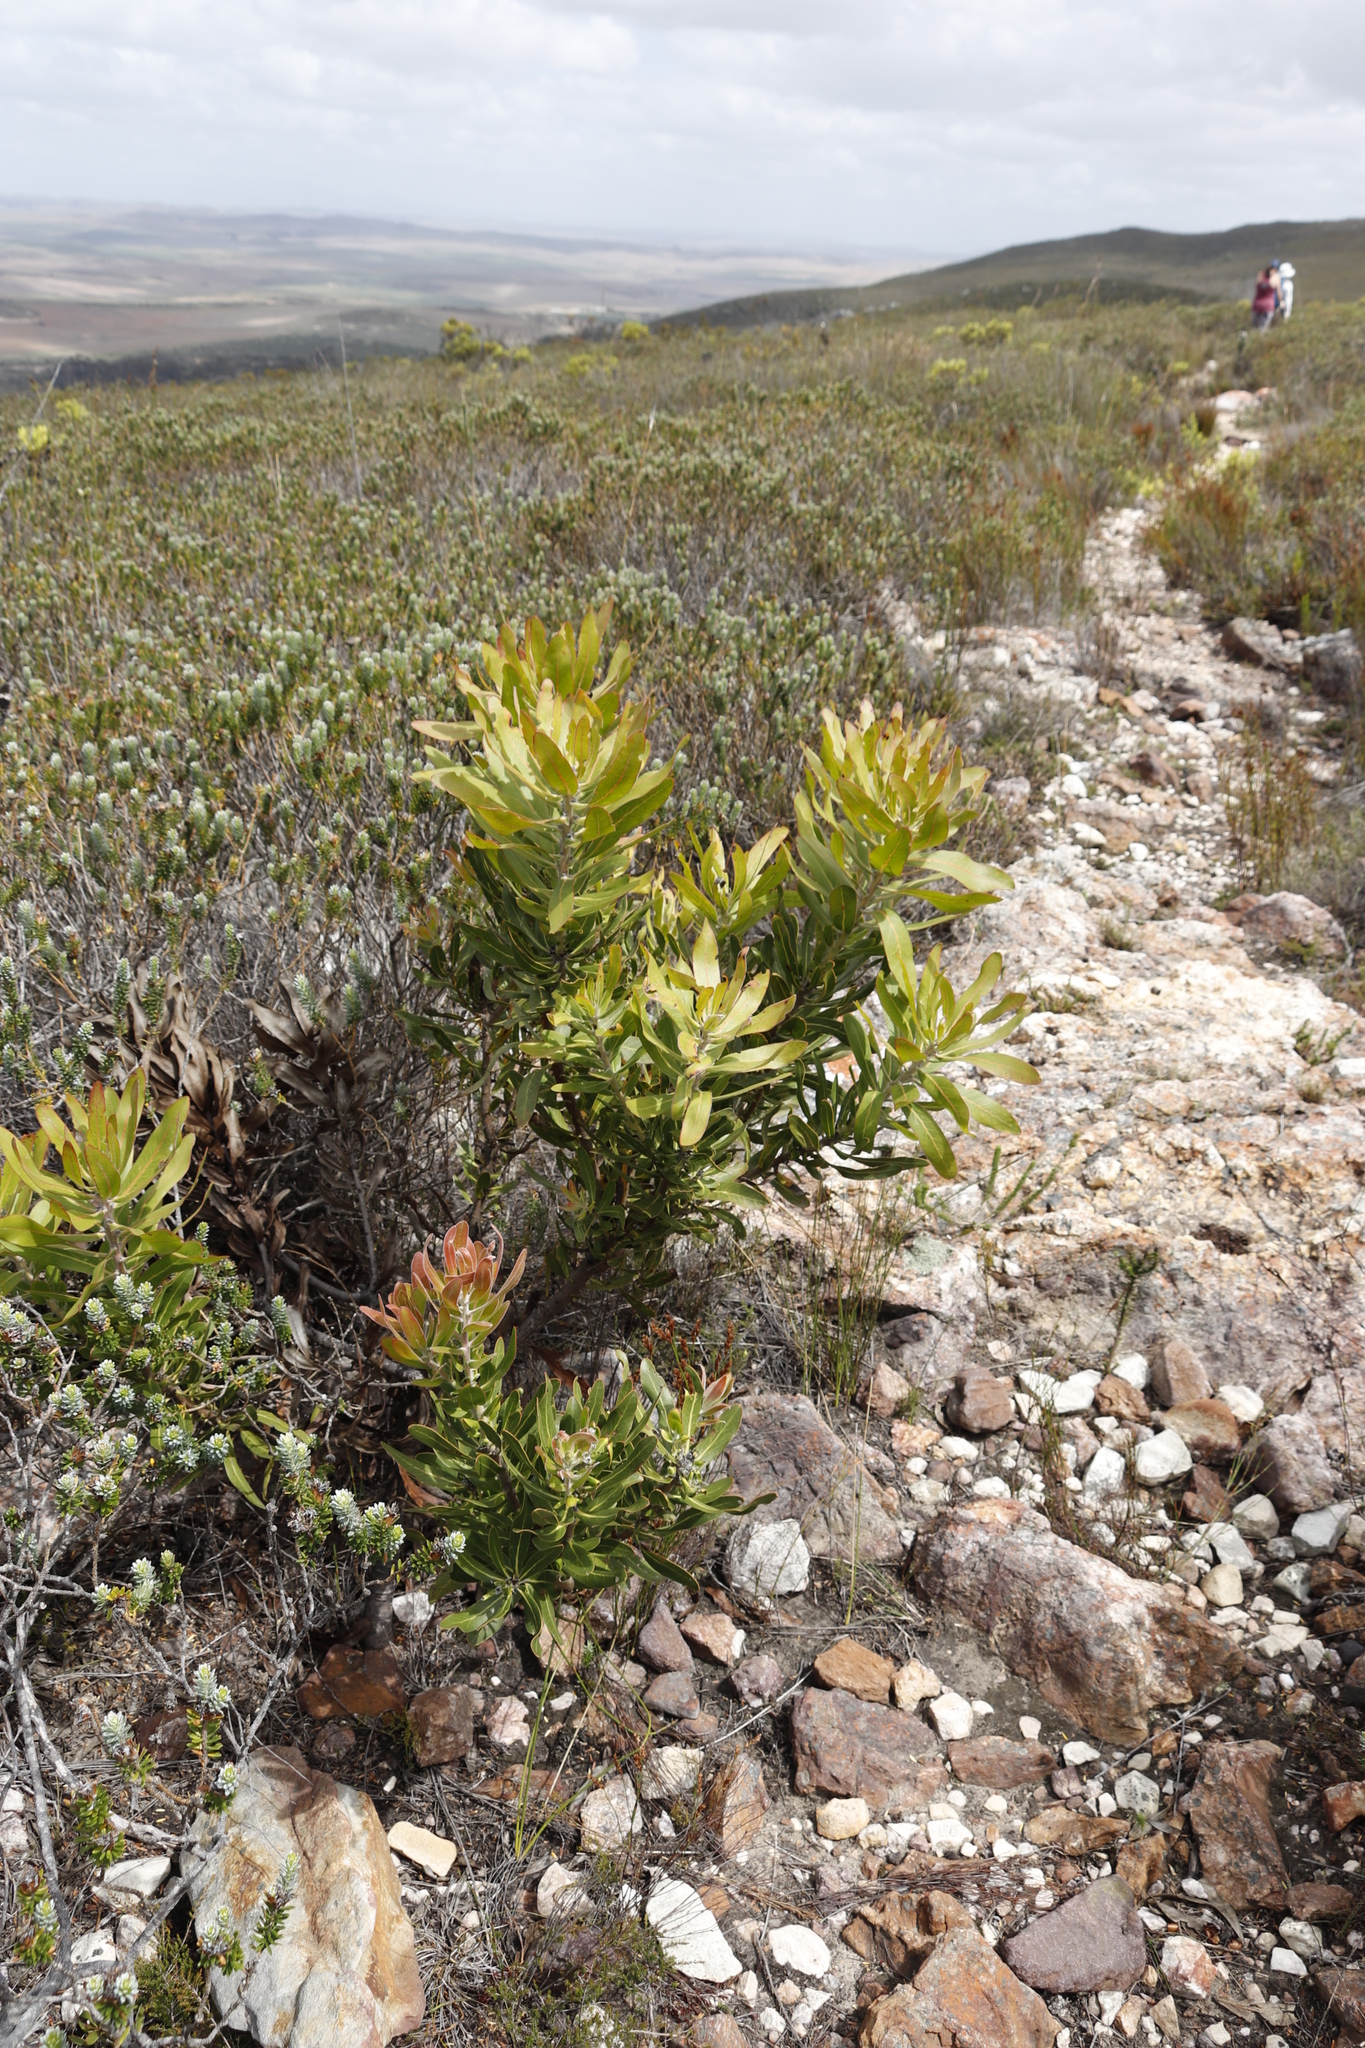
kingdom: Plantae
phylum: Tracheophyta
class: Magnoliopsida
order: Proteales
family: Proteaceae
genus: Protea
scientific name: Protea neriifolia
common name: Blue sugarbush
